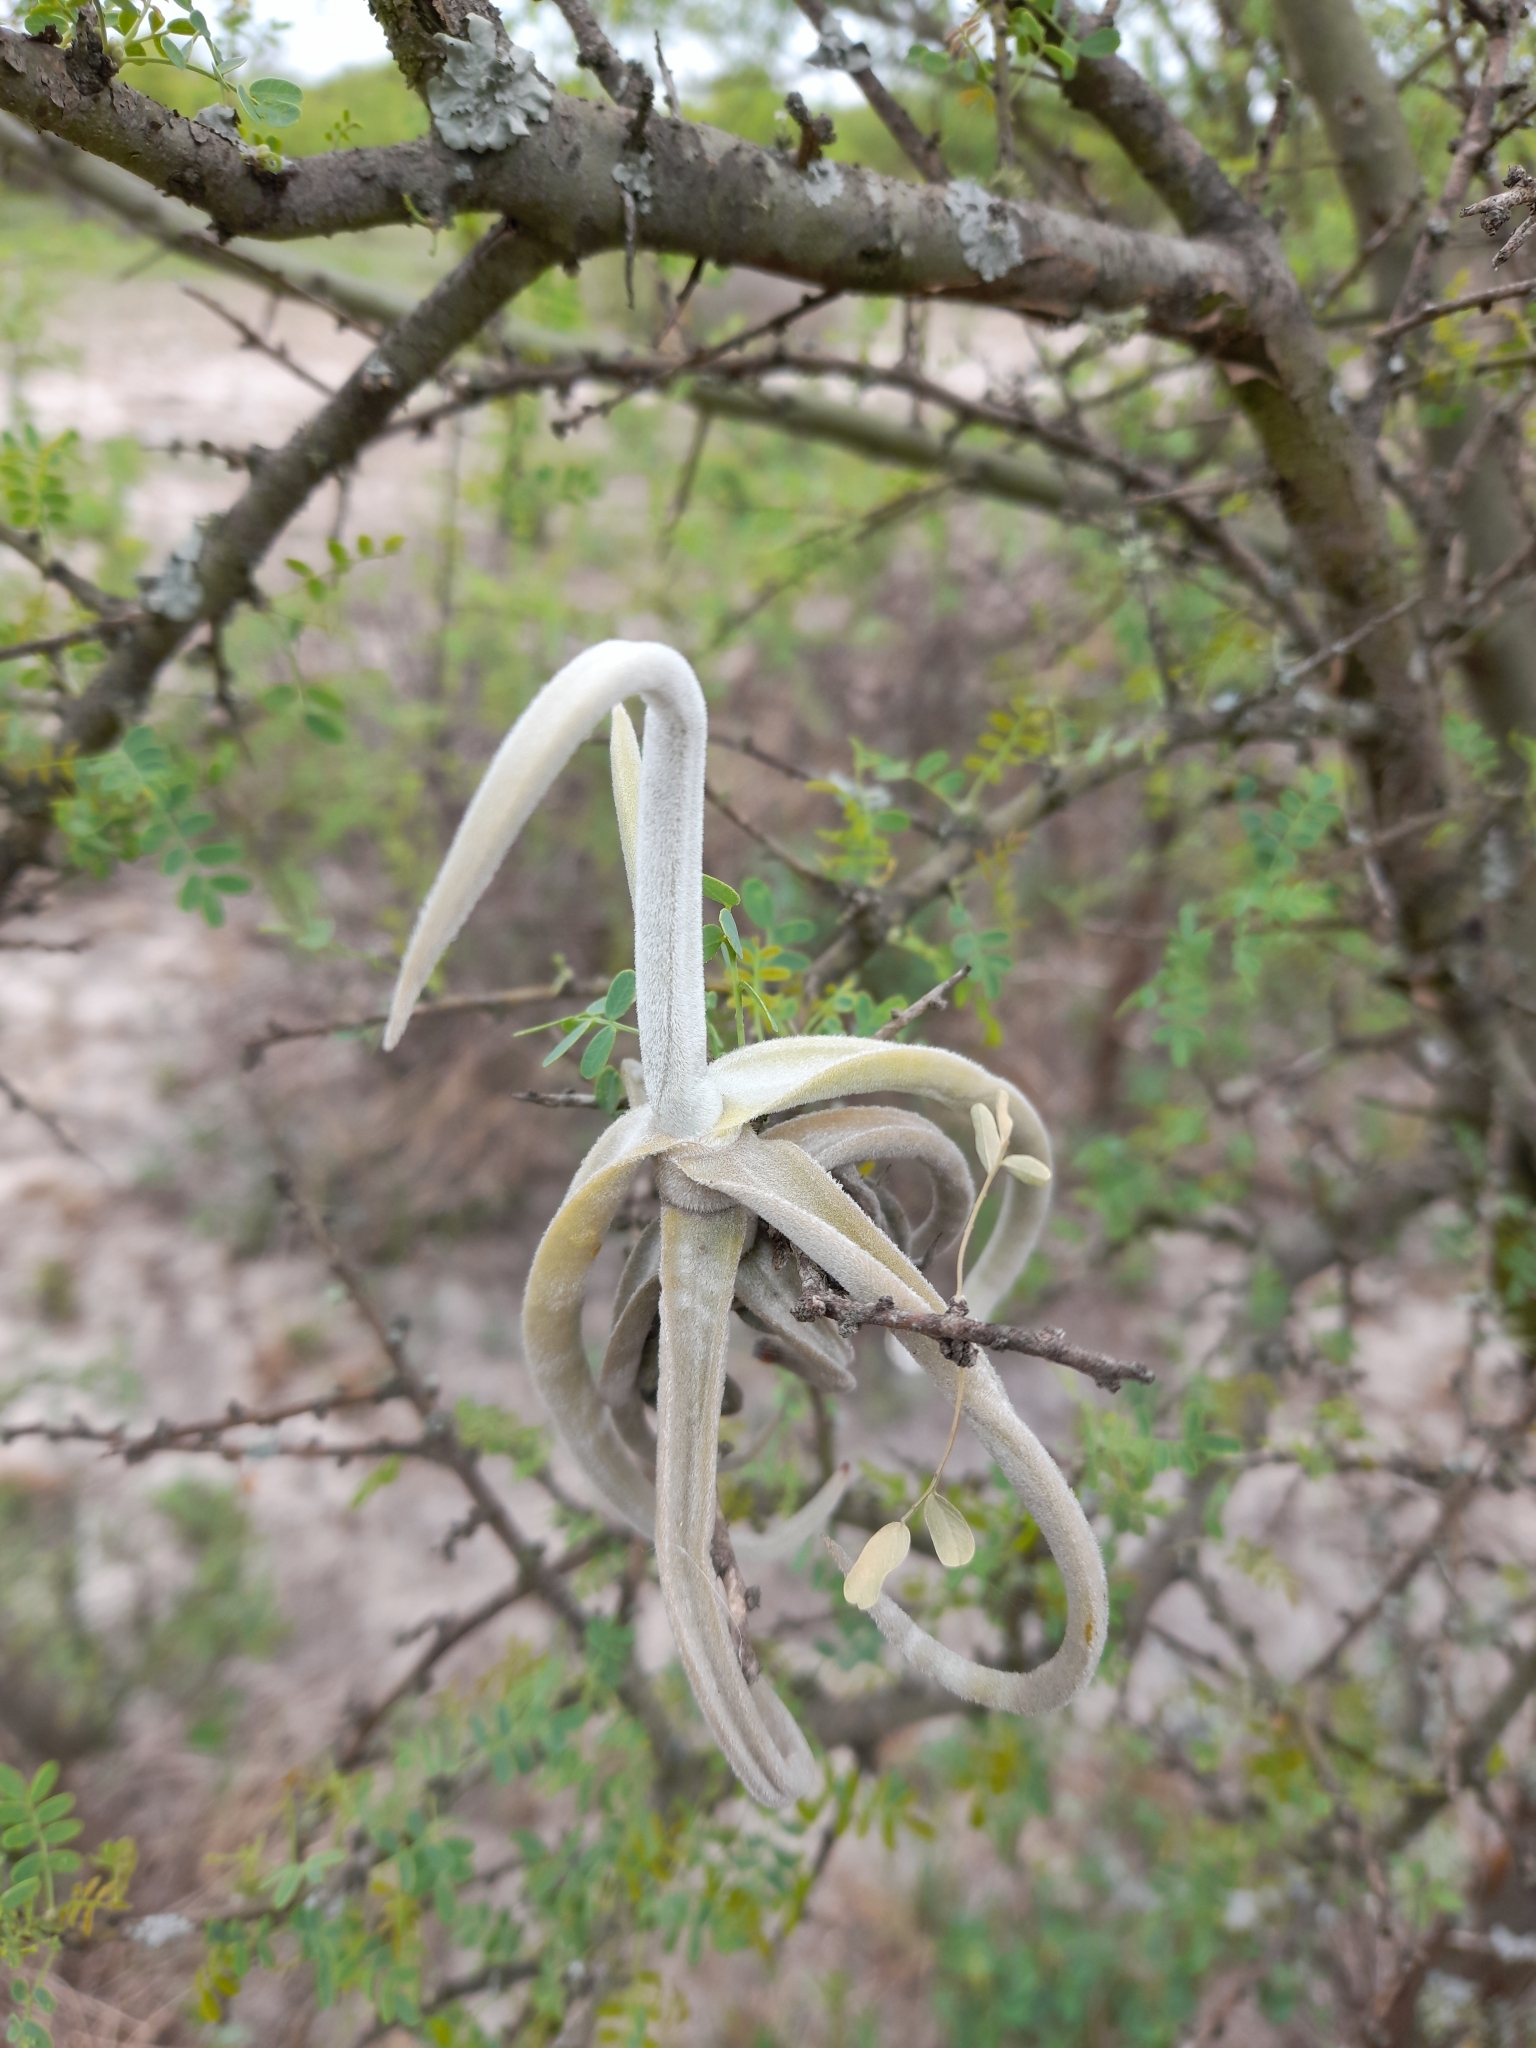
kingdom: Plantae
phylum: Tracheophyta
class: Liliopsida
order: Poales
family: Bromeliaceae
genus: Tillandsia
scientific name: Tillandsia duratii
